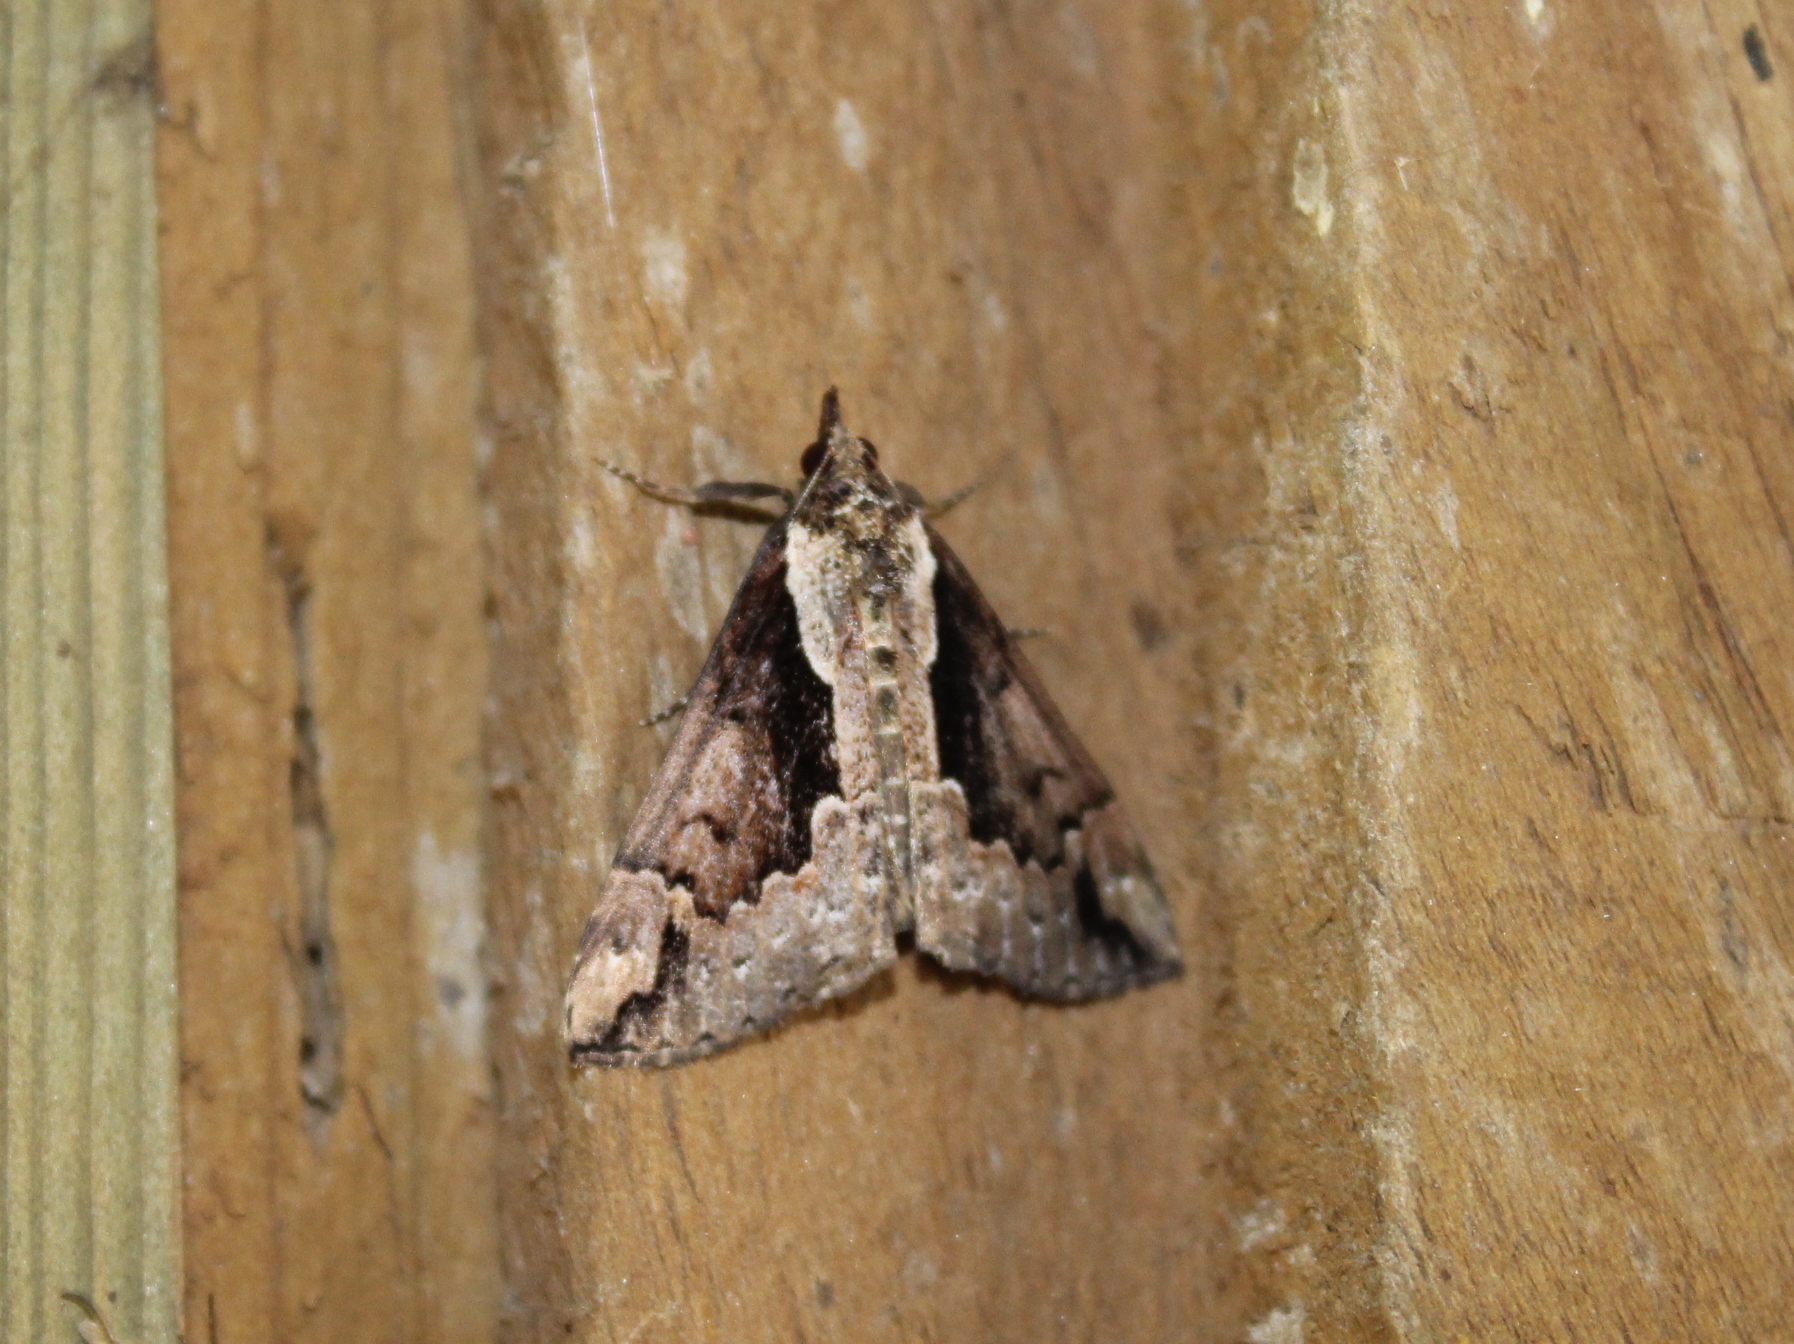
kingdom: Animalia
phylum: Arthropoda
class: Insecta
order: Lepidoptera
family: Erebidae
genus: Hypena
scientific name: Hypena baltimoralis
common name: Baltimore snout
